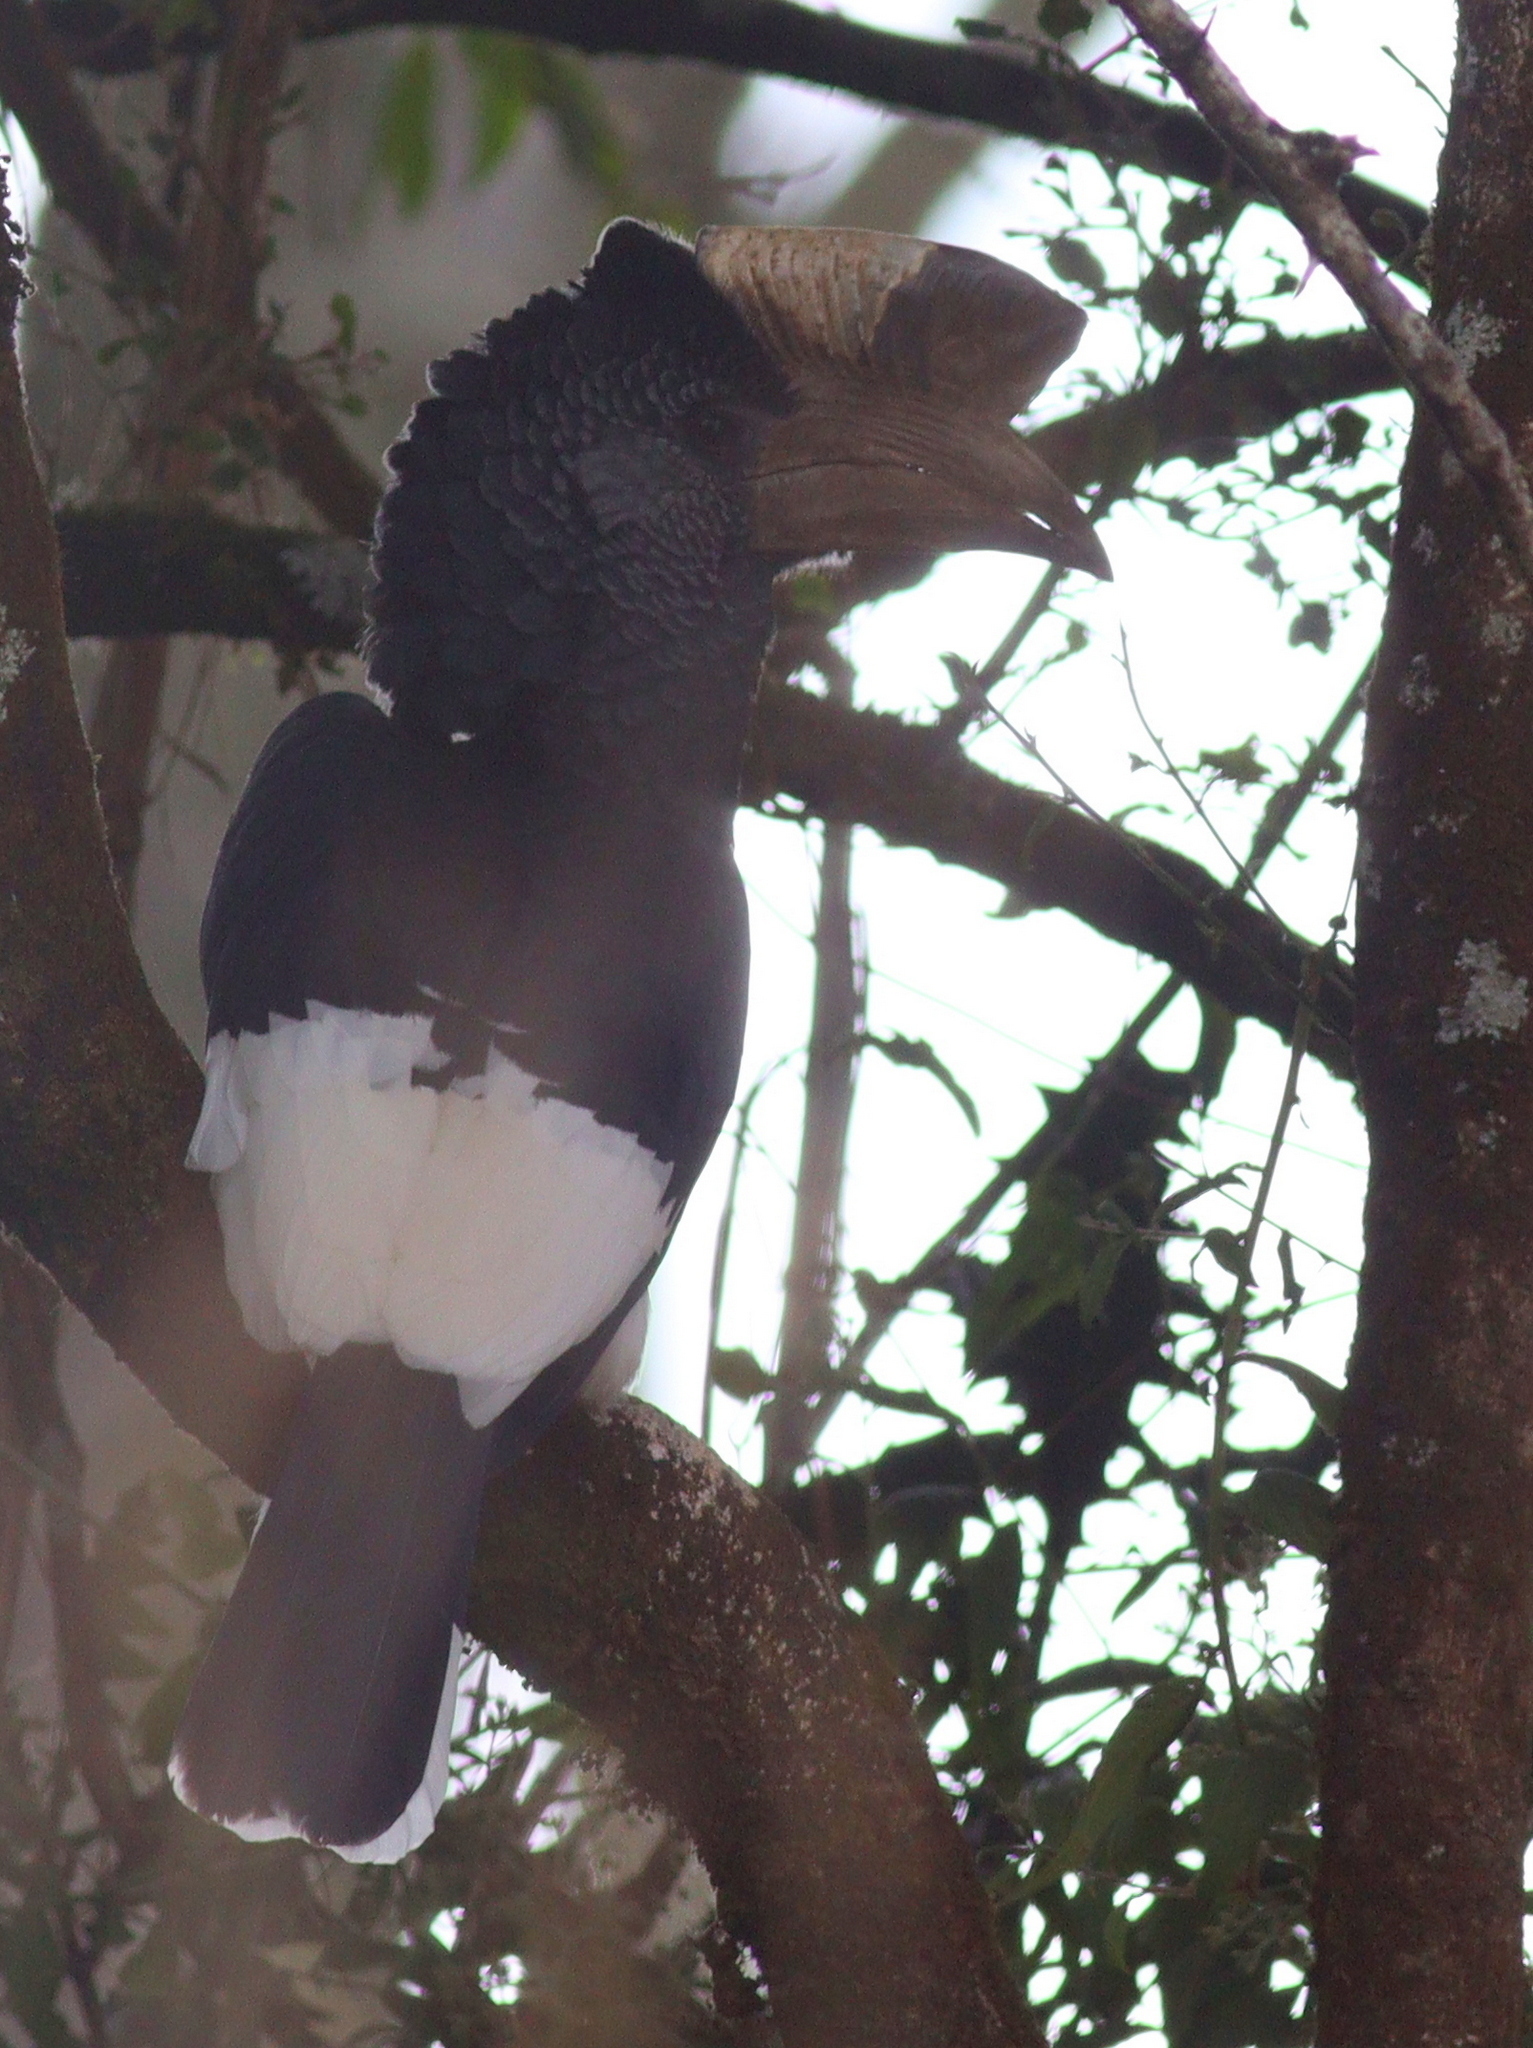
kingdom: Animalia
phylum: Chordata
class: Aves
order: Bucerotiformes
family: Bucerotidae
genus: Bycanistes
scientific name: Bycanistes subcylindricus
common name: Black-and-white-casqued hornbill
